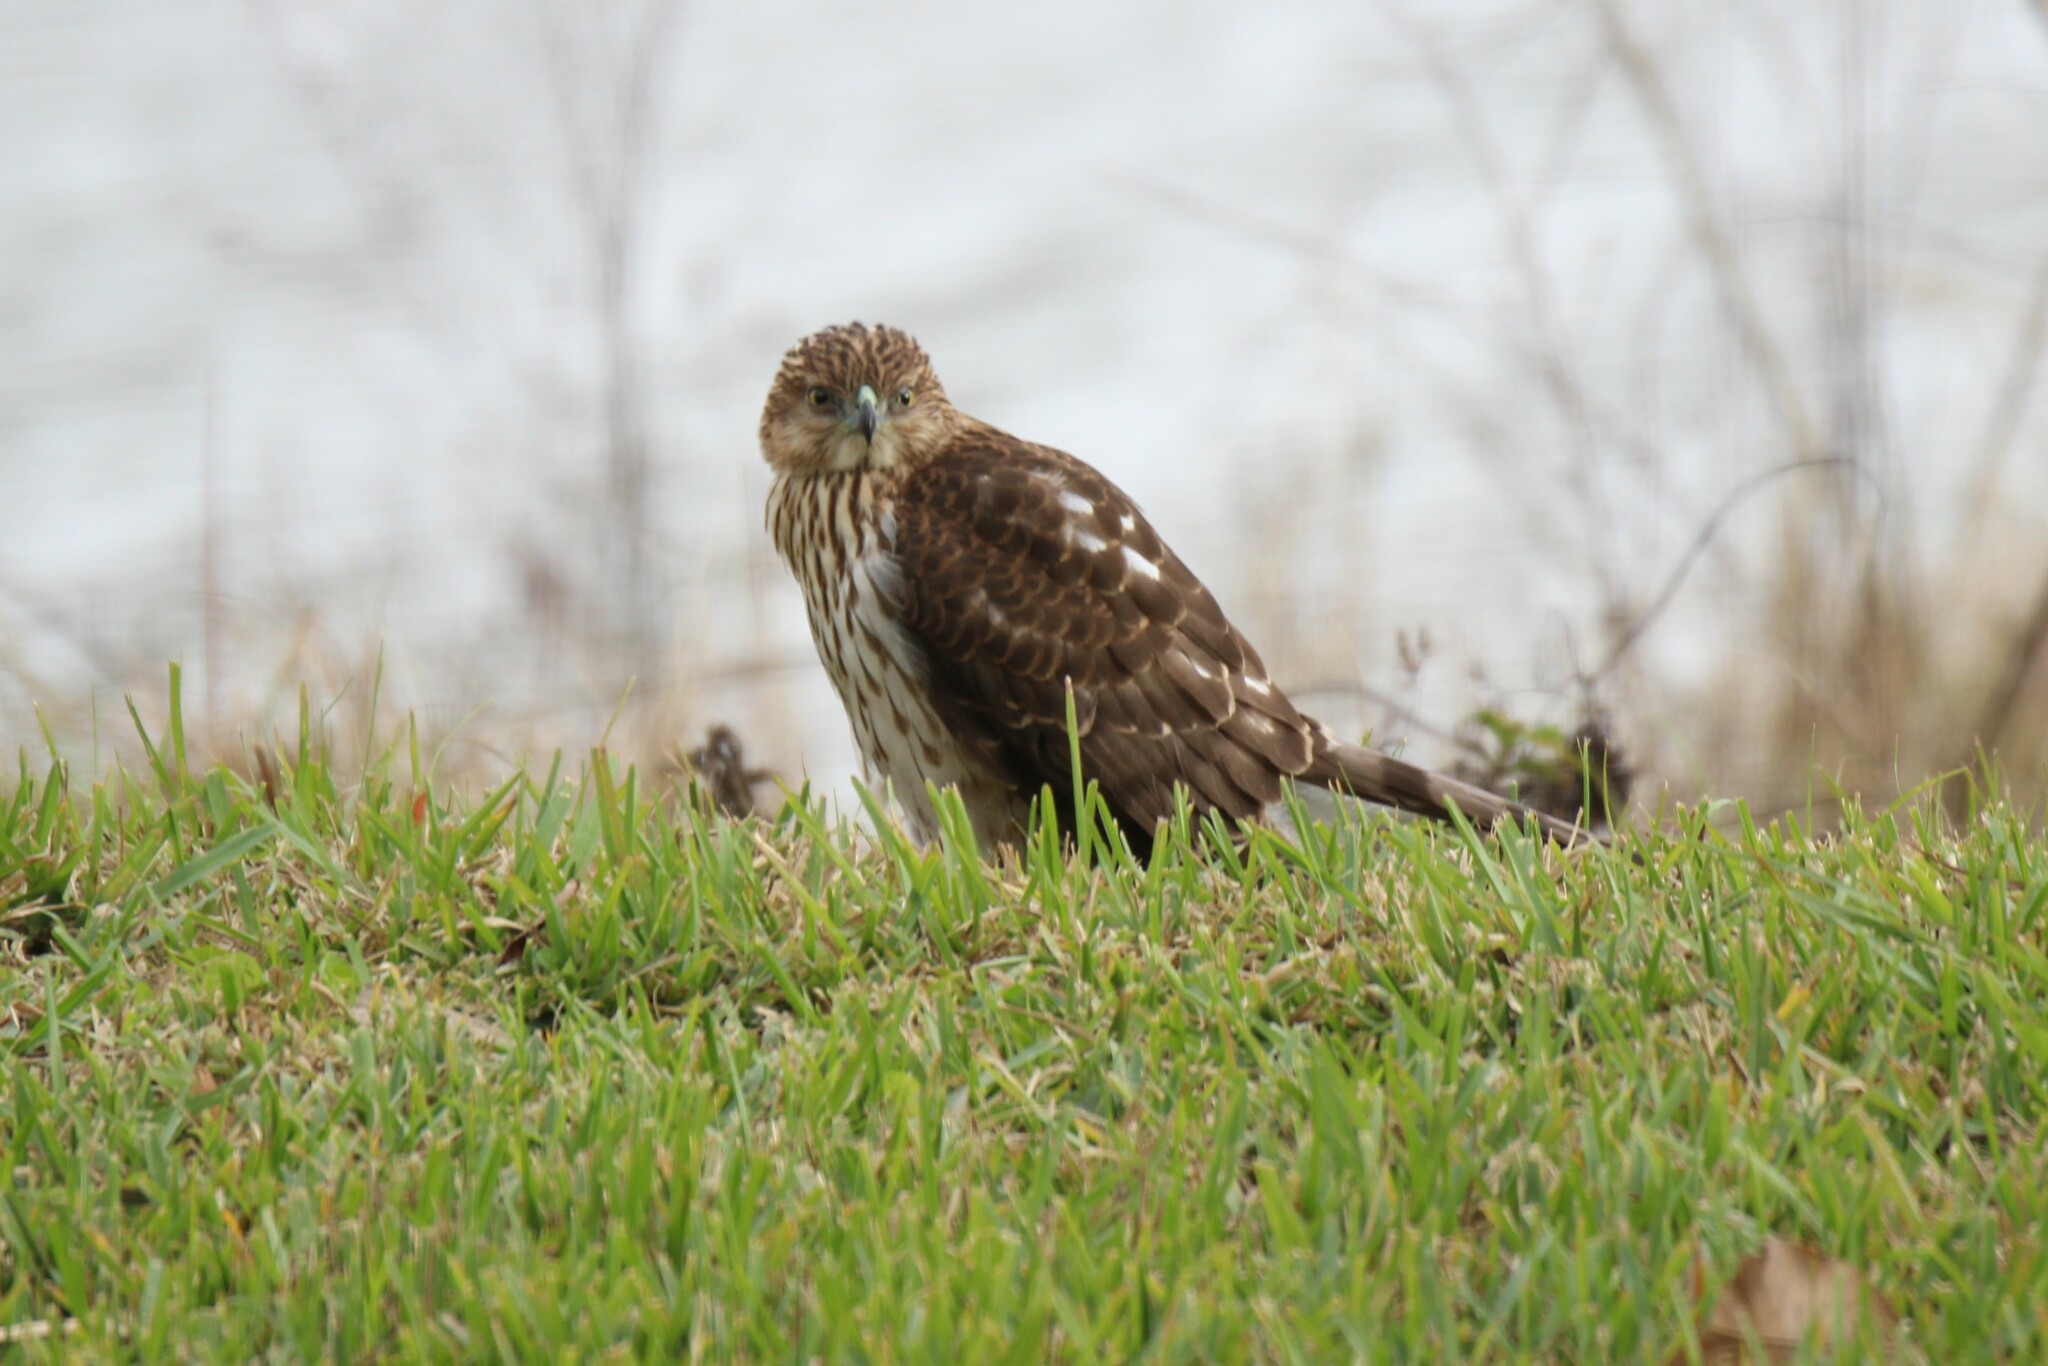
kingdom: Animalia
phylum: Chordata
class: Aves
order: Accipitriformes
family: Accipitridae
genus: Accipiter
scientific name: Accipiter cooperii
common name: Cooper's hawk
